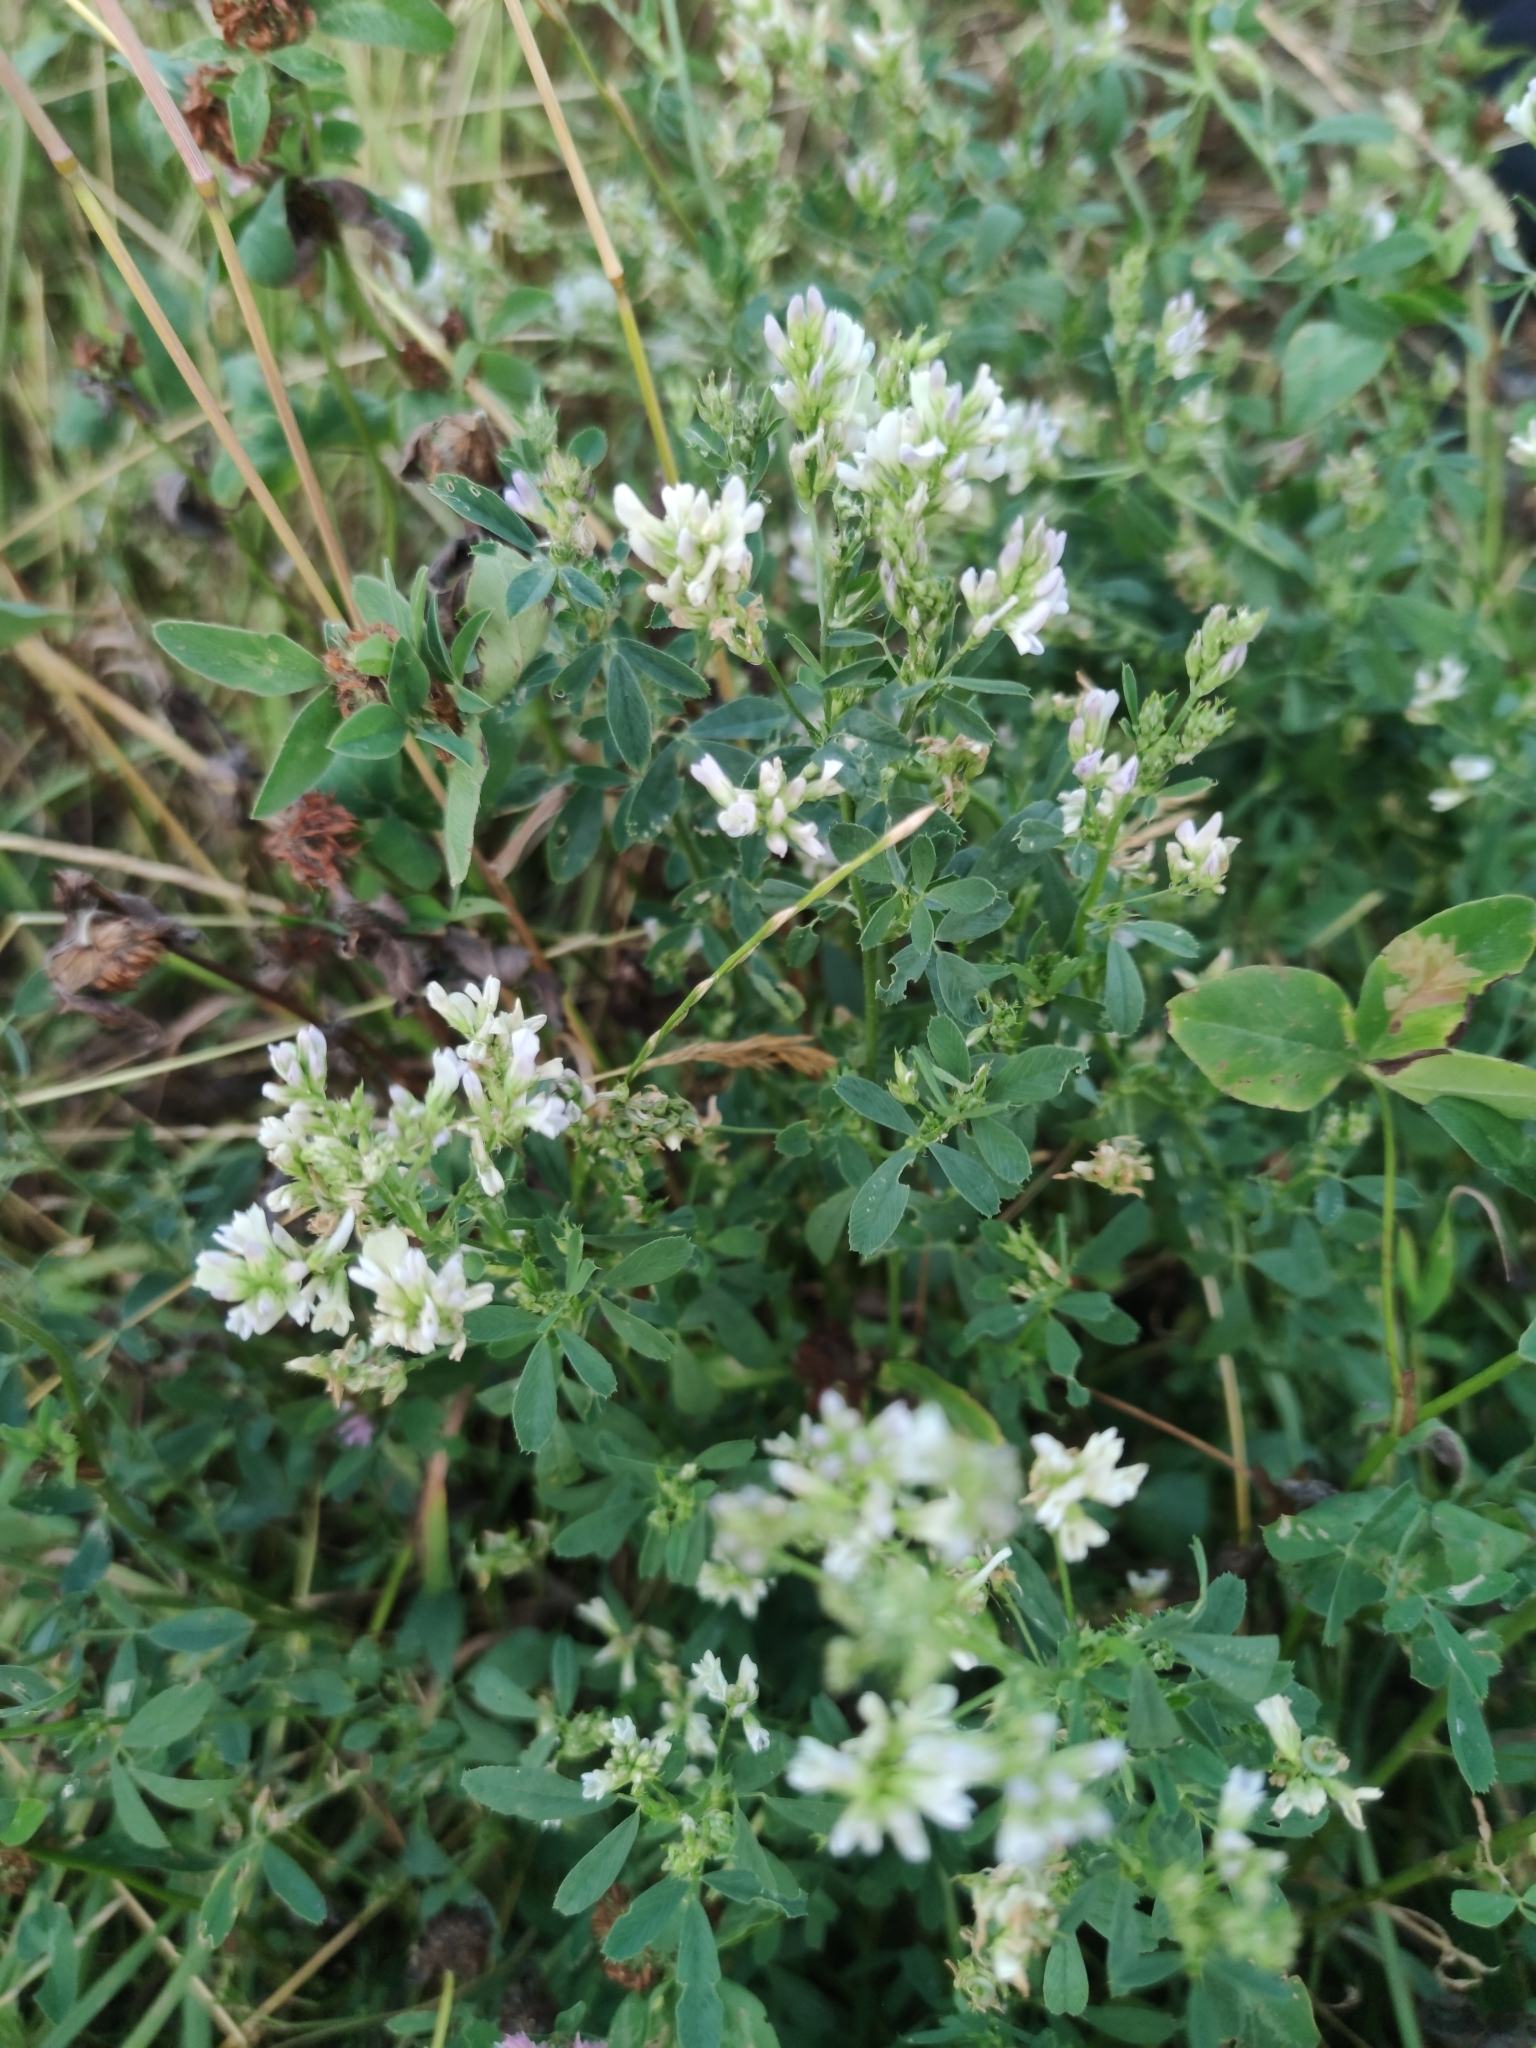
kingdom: Plantae
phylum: Tracheophyta
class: Magnoliopsida
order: Fabales
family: Fabaceae
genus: Medicago
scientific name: Medicago varia
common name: Sand lucerne
